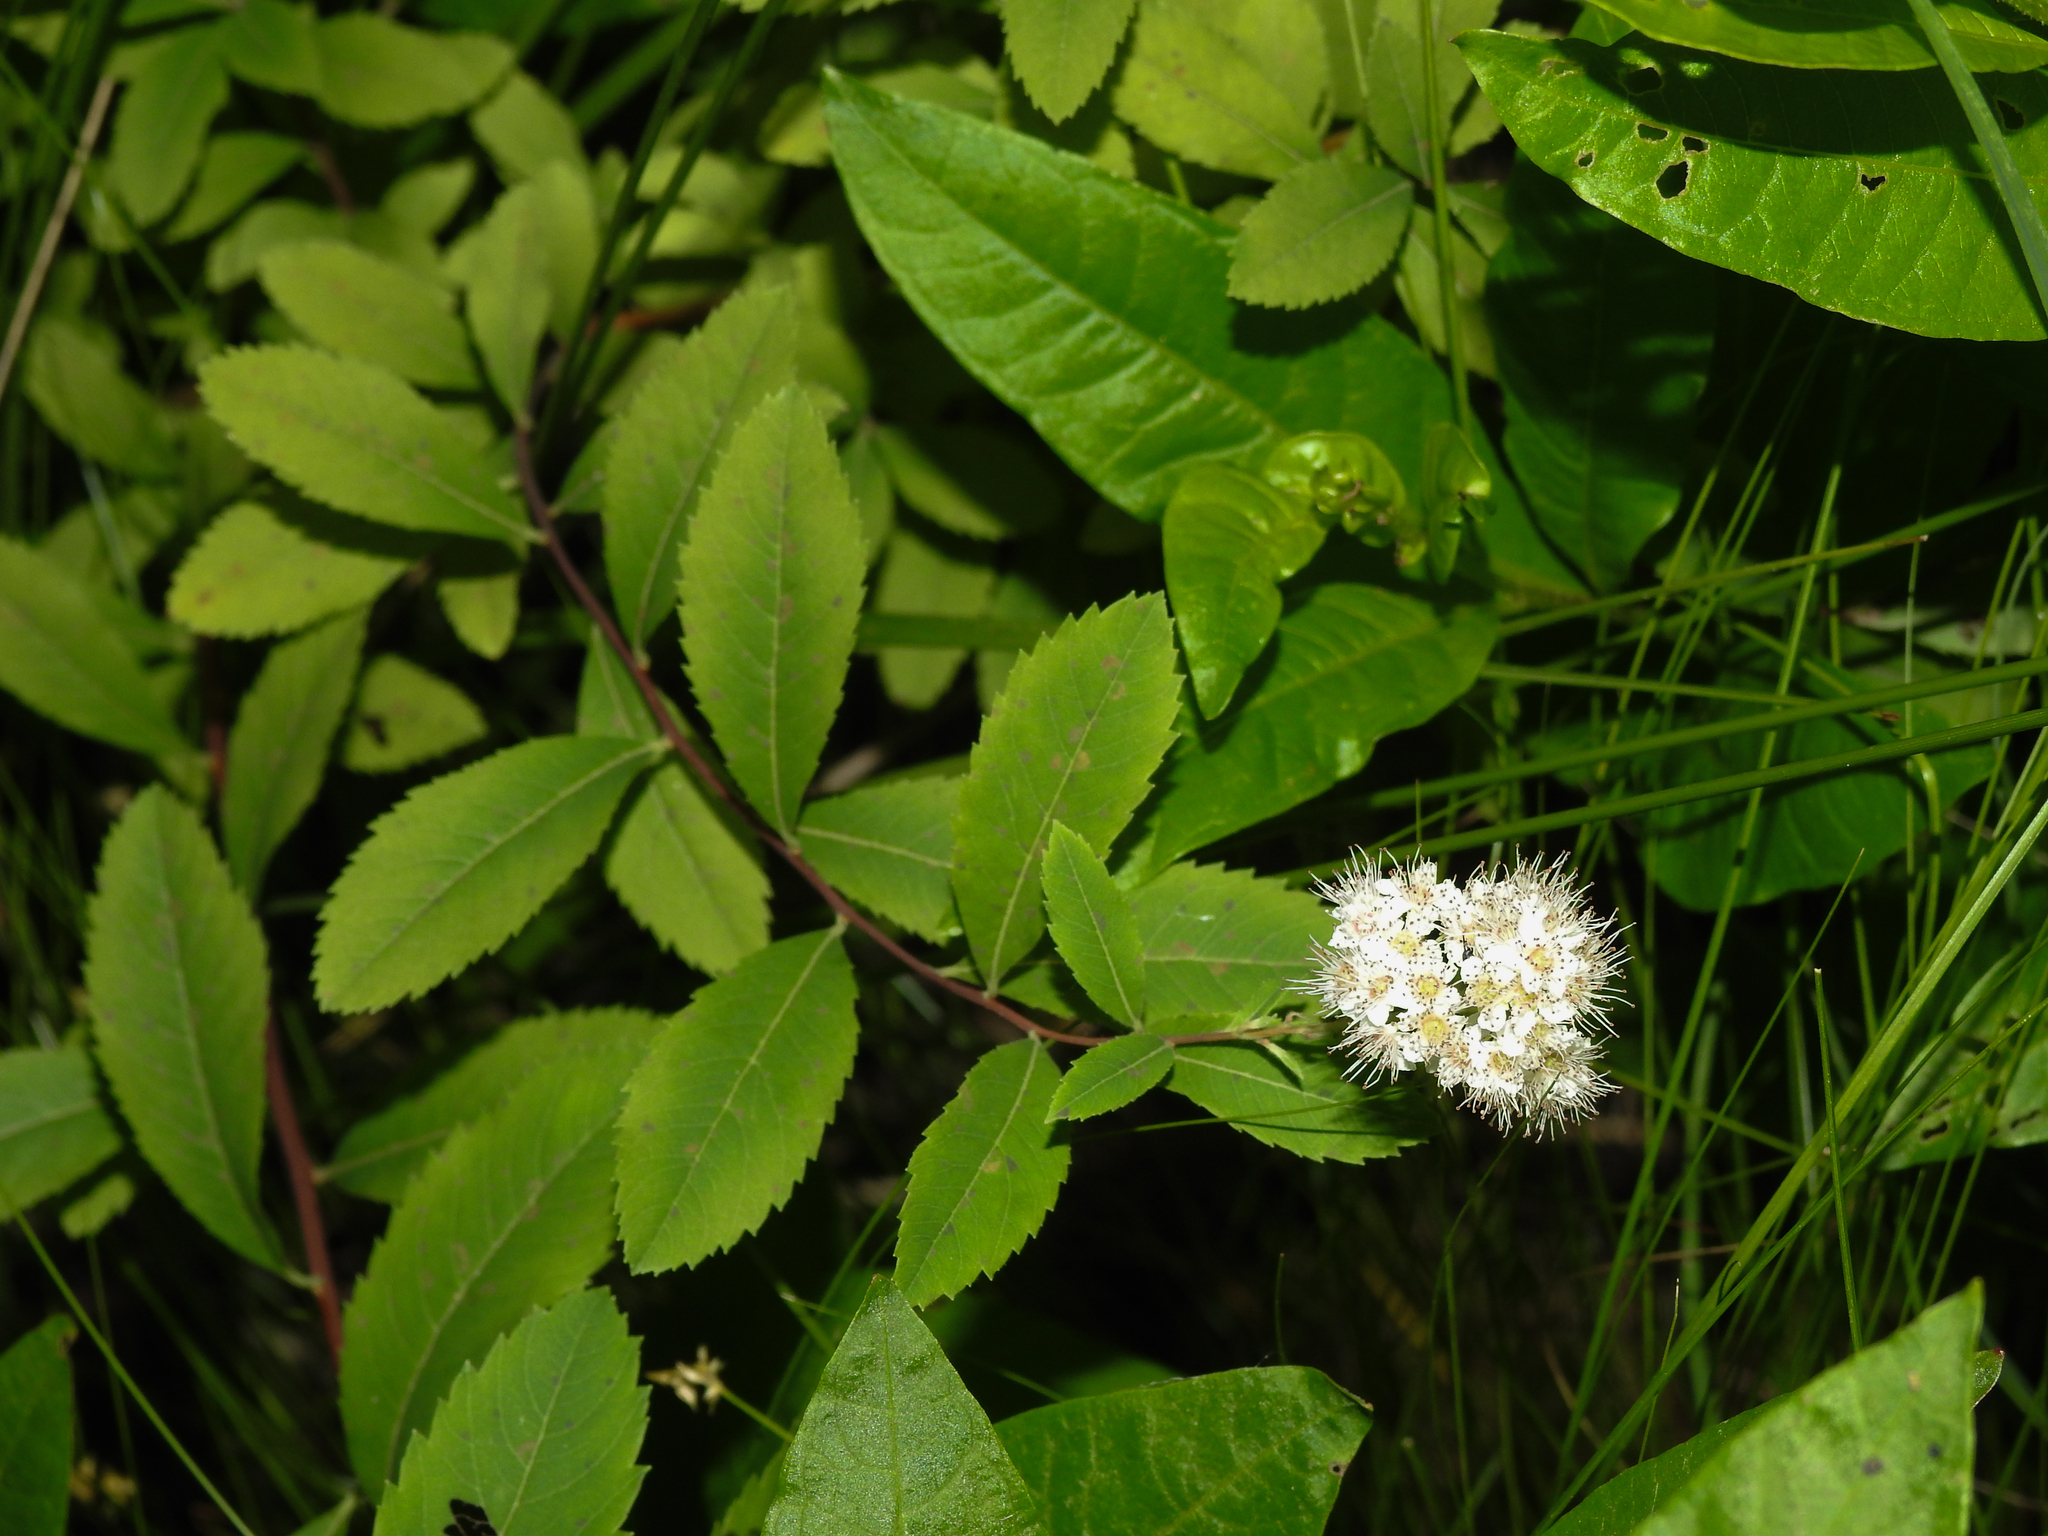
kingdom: Plantae
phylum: Tracheophyta
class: Magnoliopsida
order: Rosales
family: Rosaceae
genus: Spiraea
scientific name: Spiraea alba
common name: Pale bridewort
